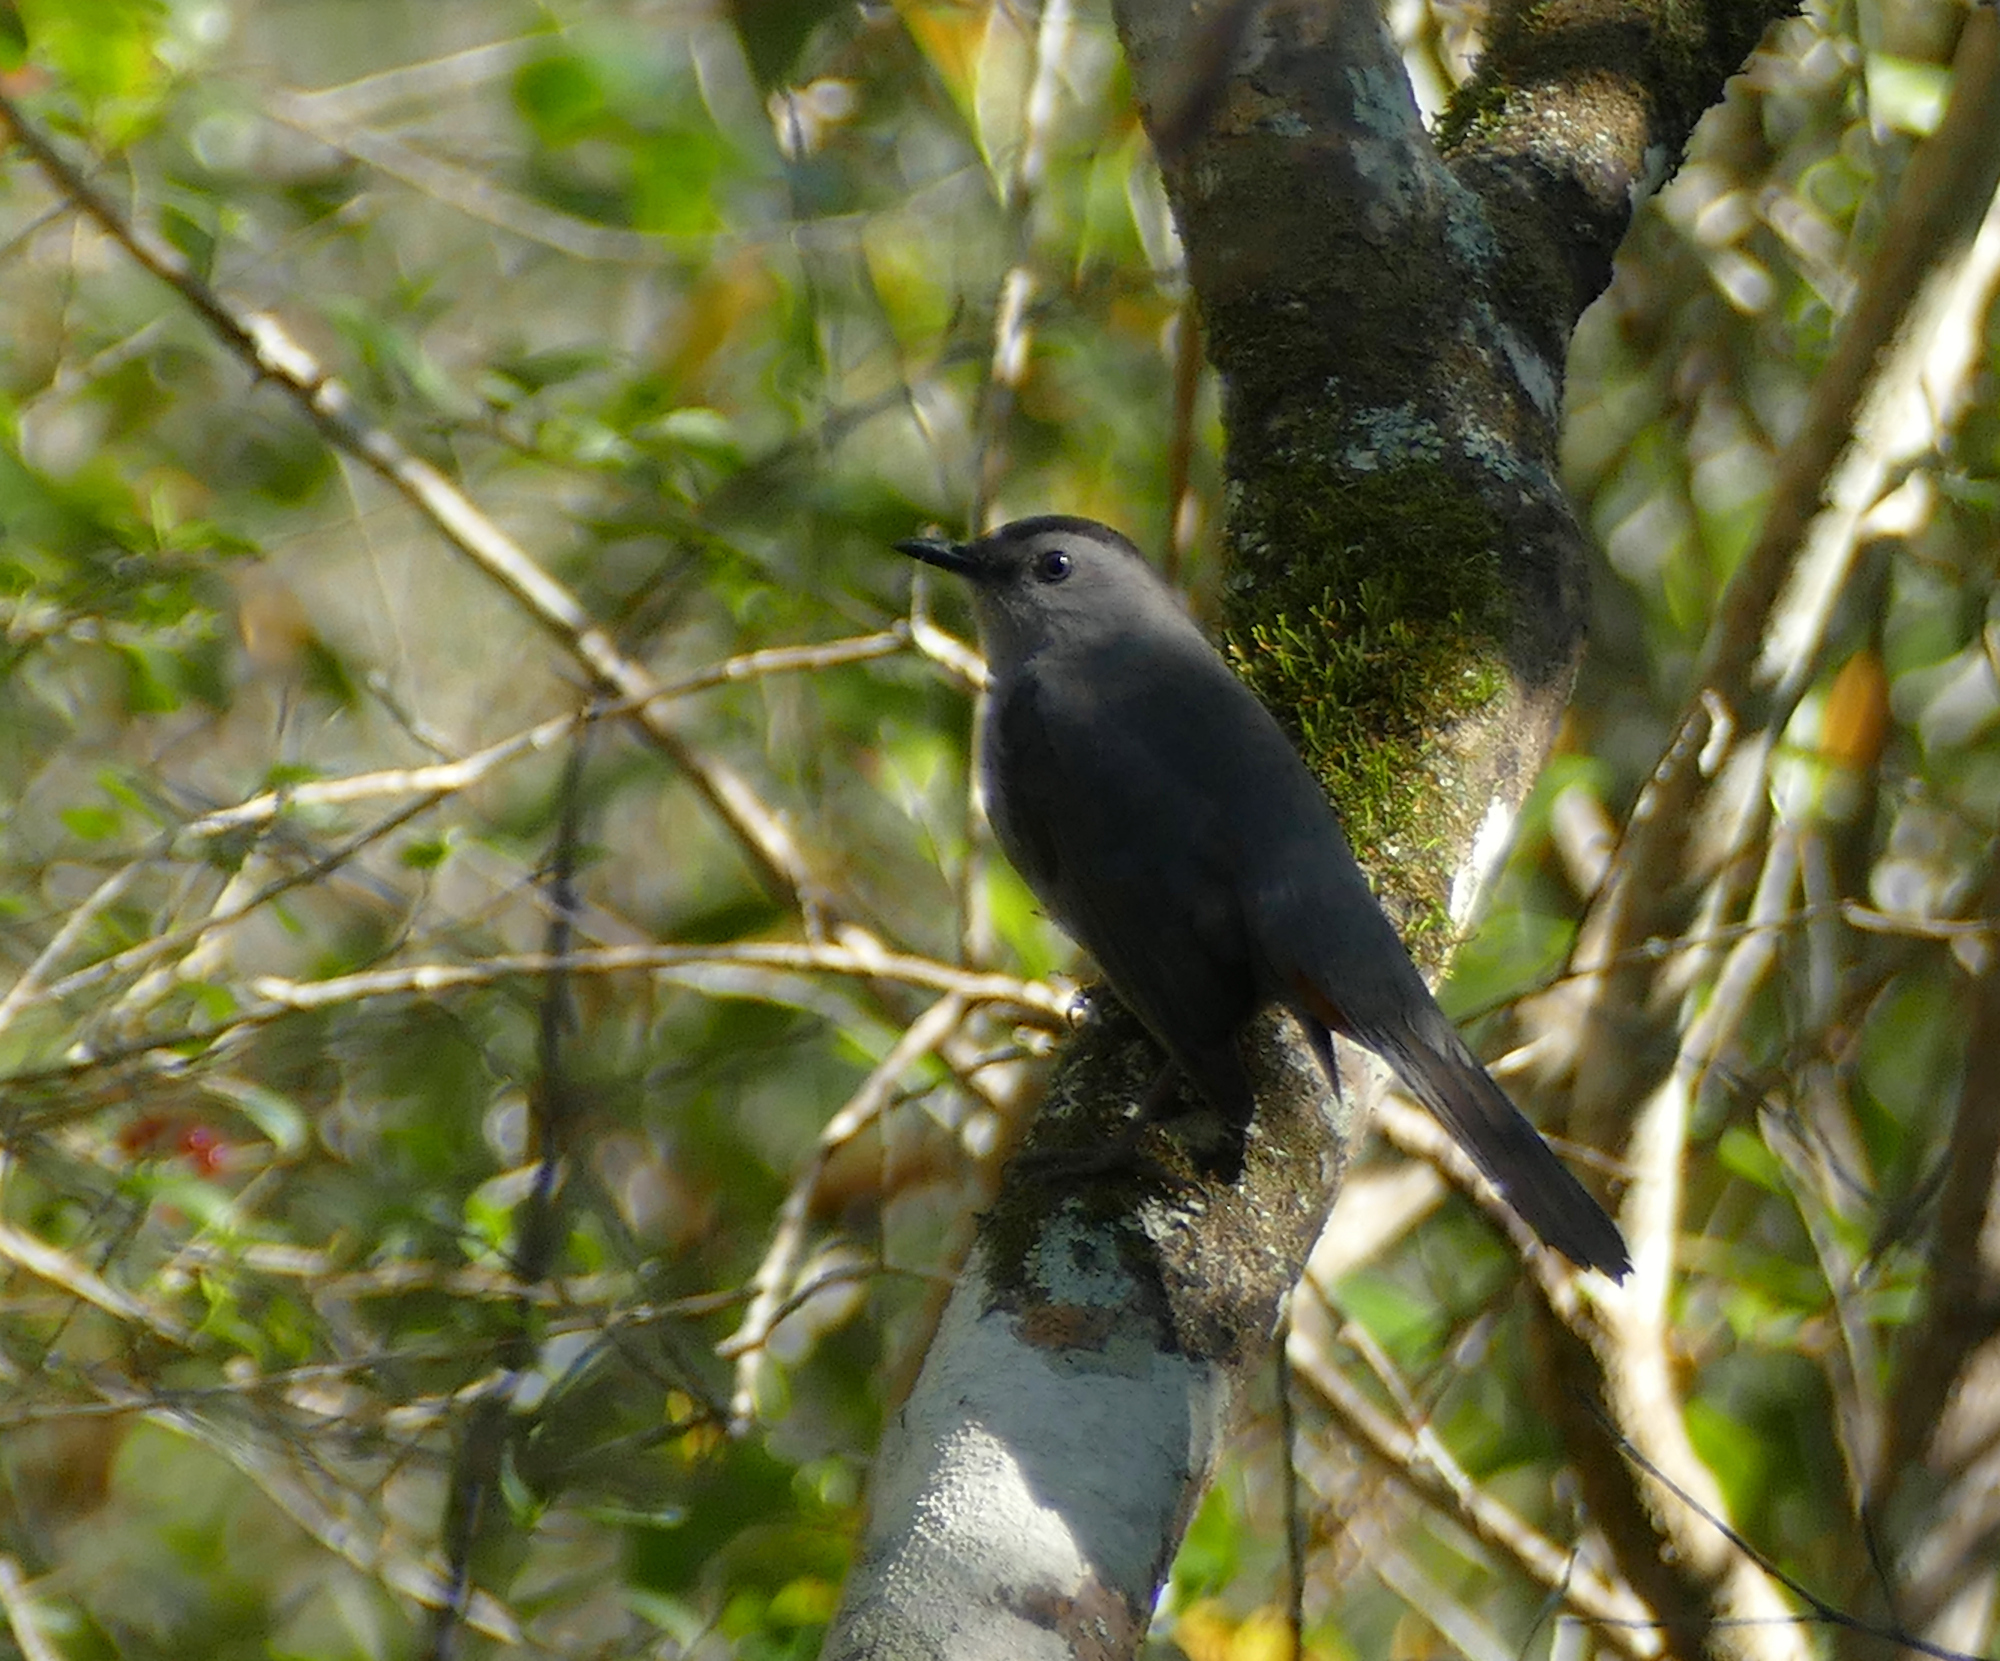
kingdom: Animalia
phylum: Chordata
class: Aves
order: Passeriformes
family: Mimidae
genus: Dumetella
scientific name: Dumetella carolinensis
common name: Gray catbird
